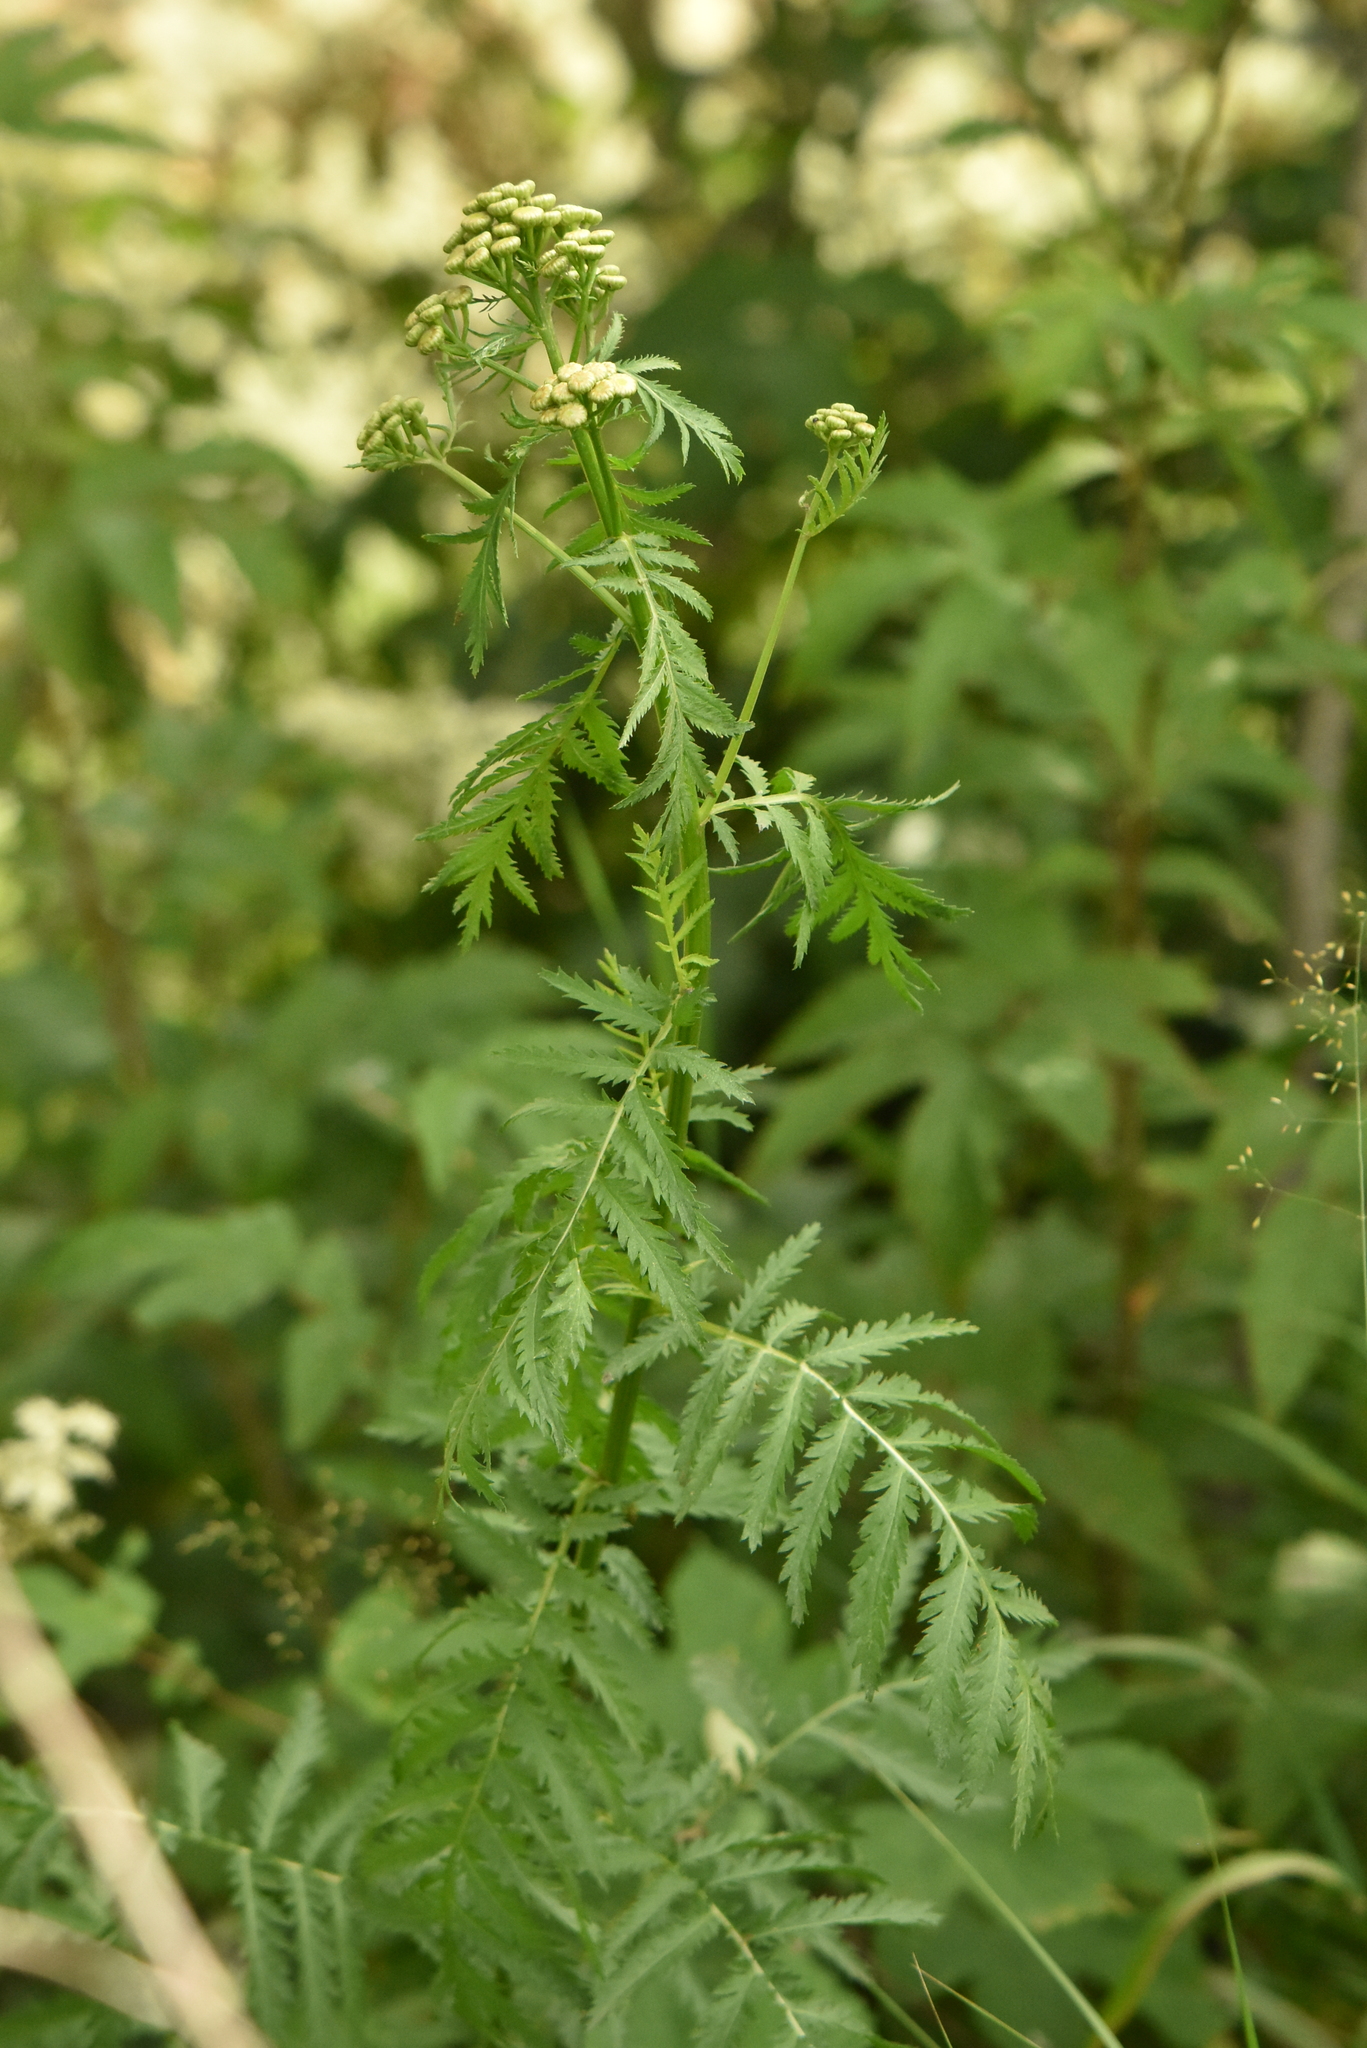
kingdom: Plantae
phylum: Tracheophyta
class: Magnoliopsida
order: Asterales
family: Asteraceae
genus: Tanacetum
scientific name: Tanacetum vulgare
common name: Common tansy
